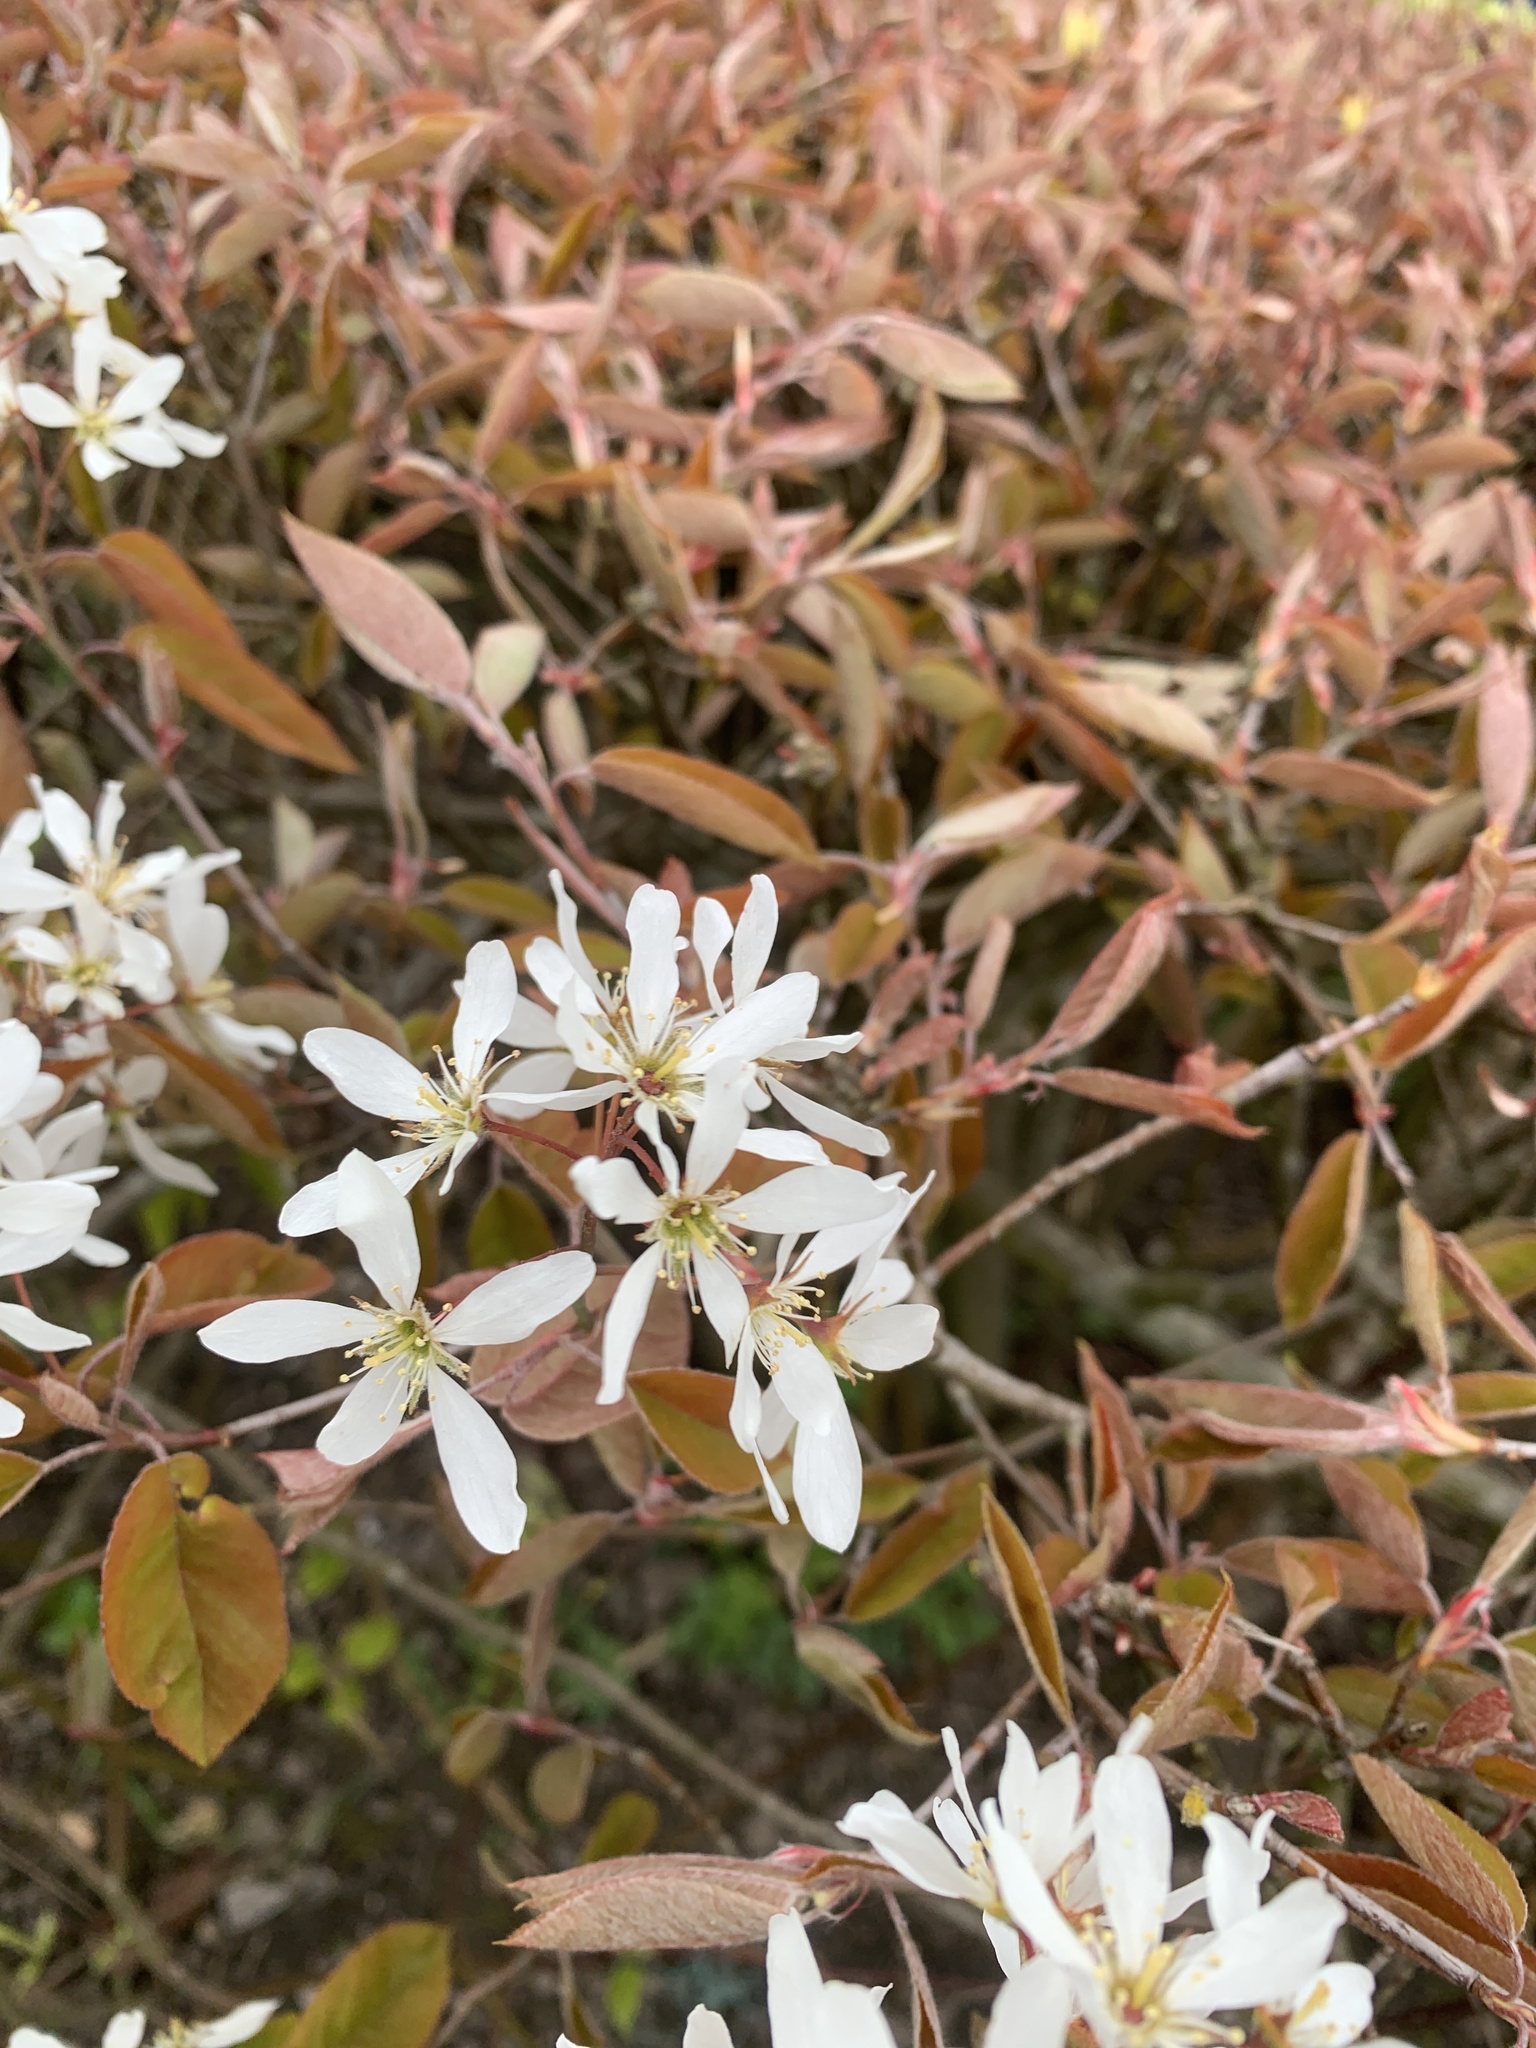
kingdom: Plantae
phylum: Tracheophyta
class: Magnoliopsida
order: Rosales
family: Rosaceae
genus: Amelanchier
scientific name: Amelanchier arborea
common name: Downy serviceberry
